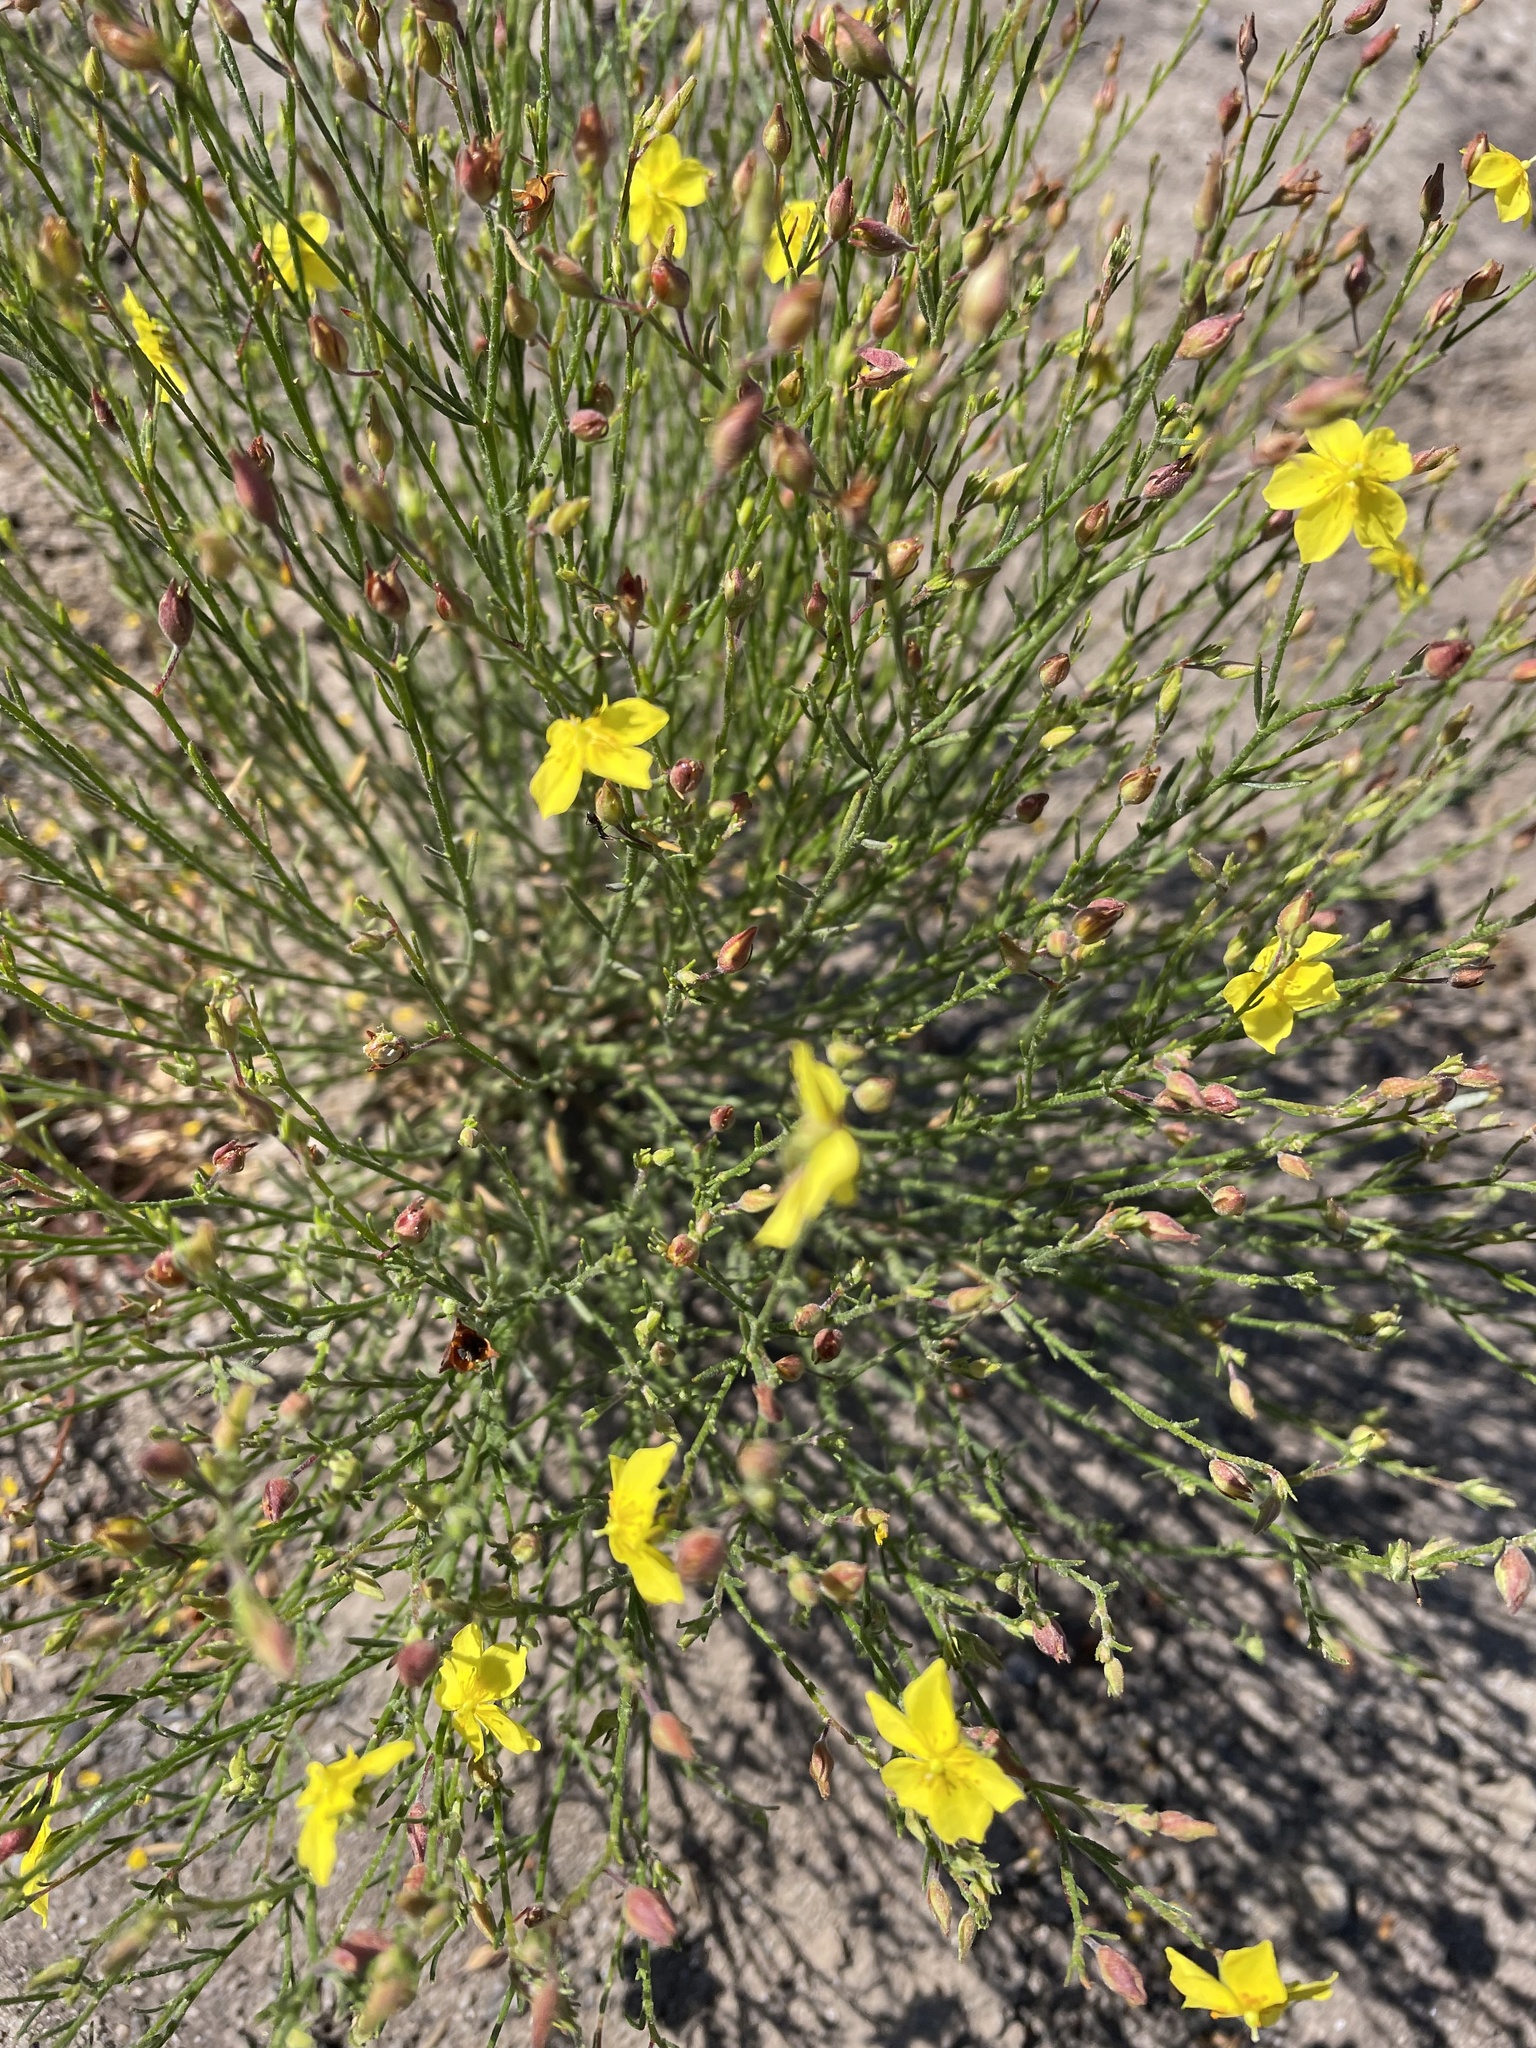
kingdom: Plantae
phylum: Tracheophyta
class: Magnoliopsida
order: Malvales
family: Cistaceae
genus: Crocanthemum
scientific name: Crocanthemum scoparium
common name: Broom-rose
